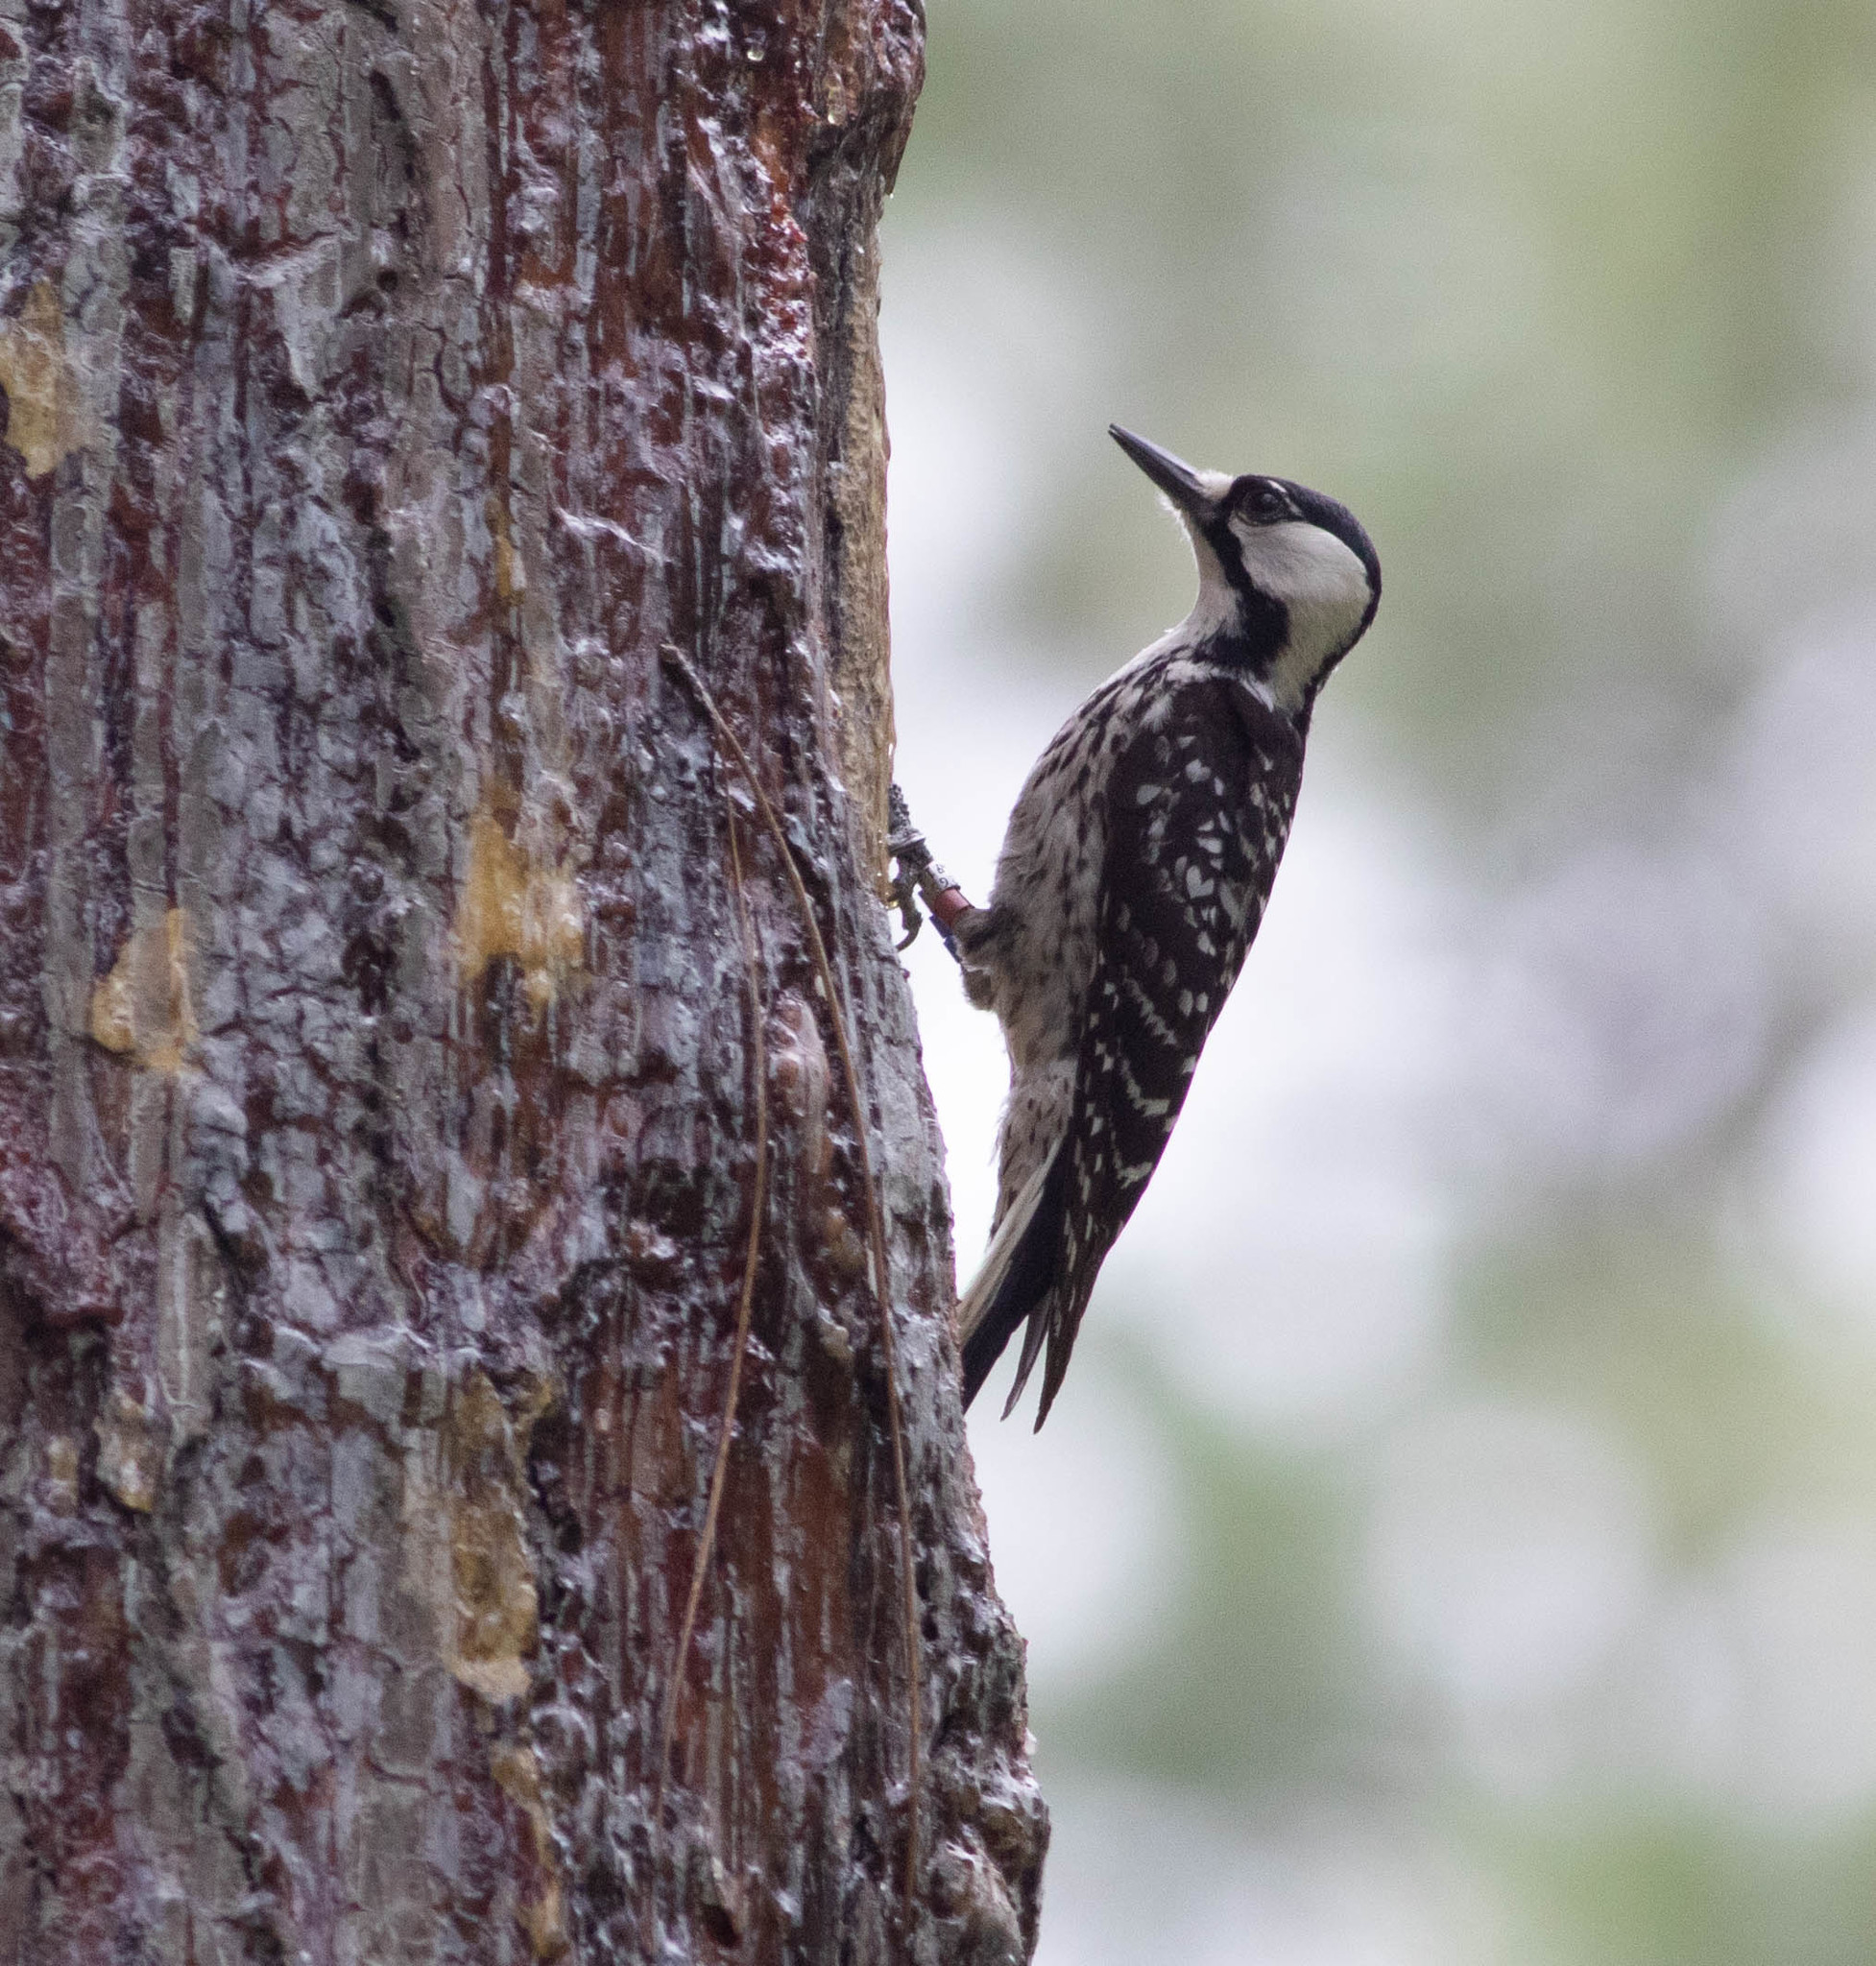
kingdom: Animalia
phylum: Chordata
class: Aves
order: Piciformes
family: Picidae
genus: Leuconotopicus
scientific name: Leuconotopicus borealis
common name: Red-cockaded woodpecker
